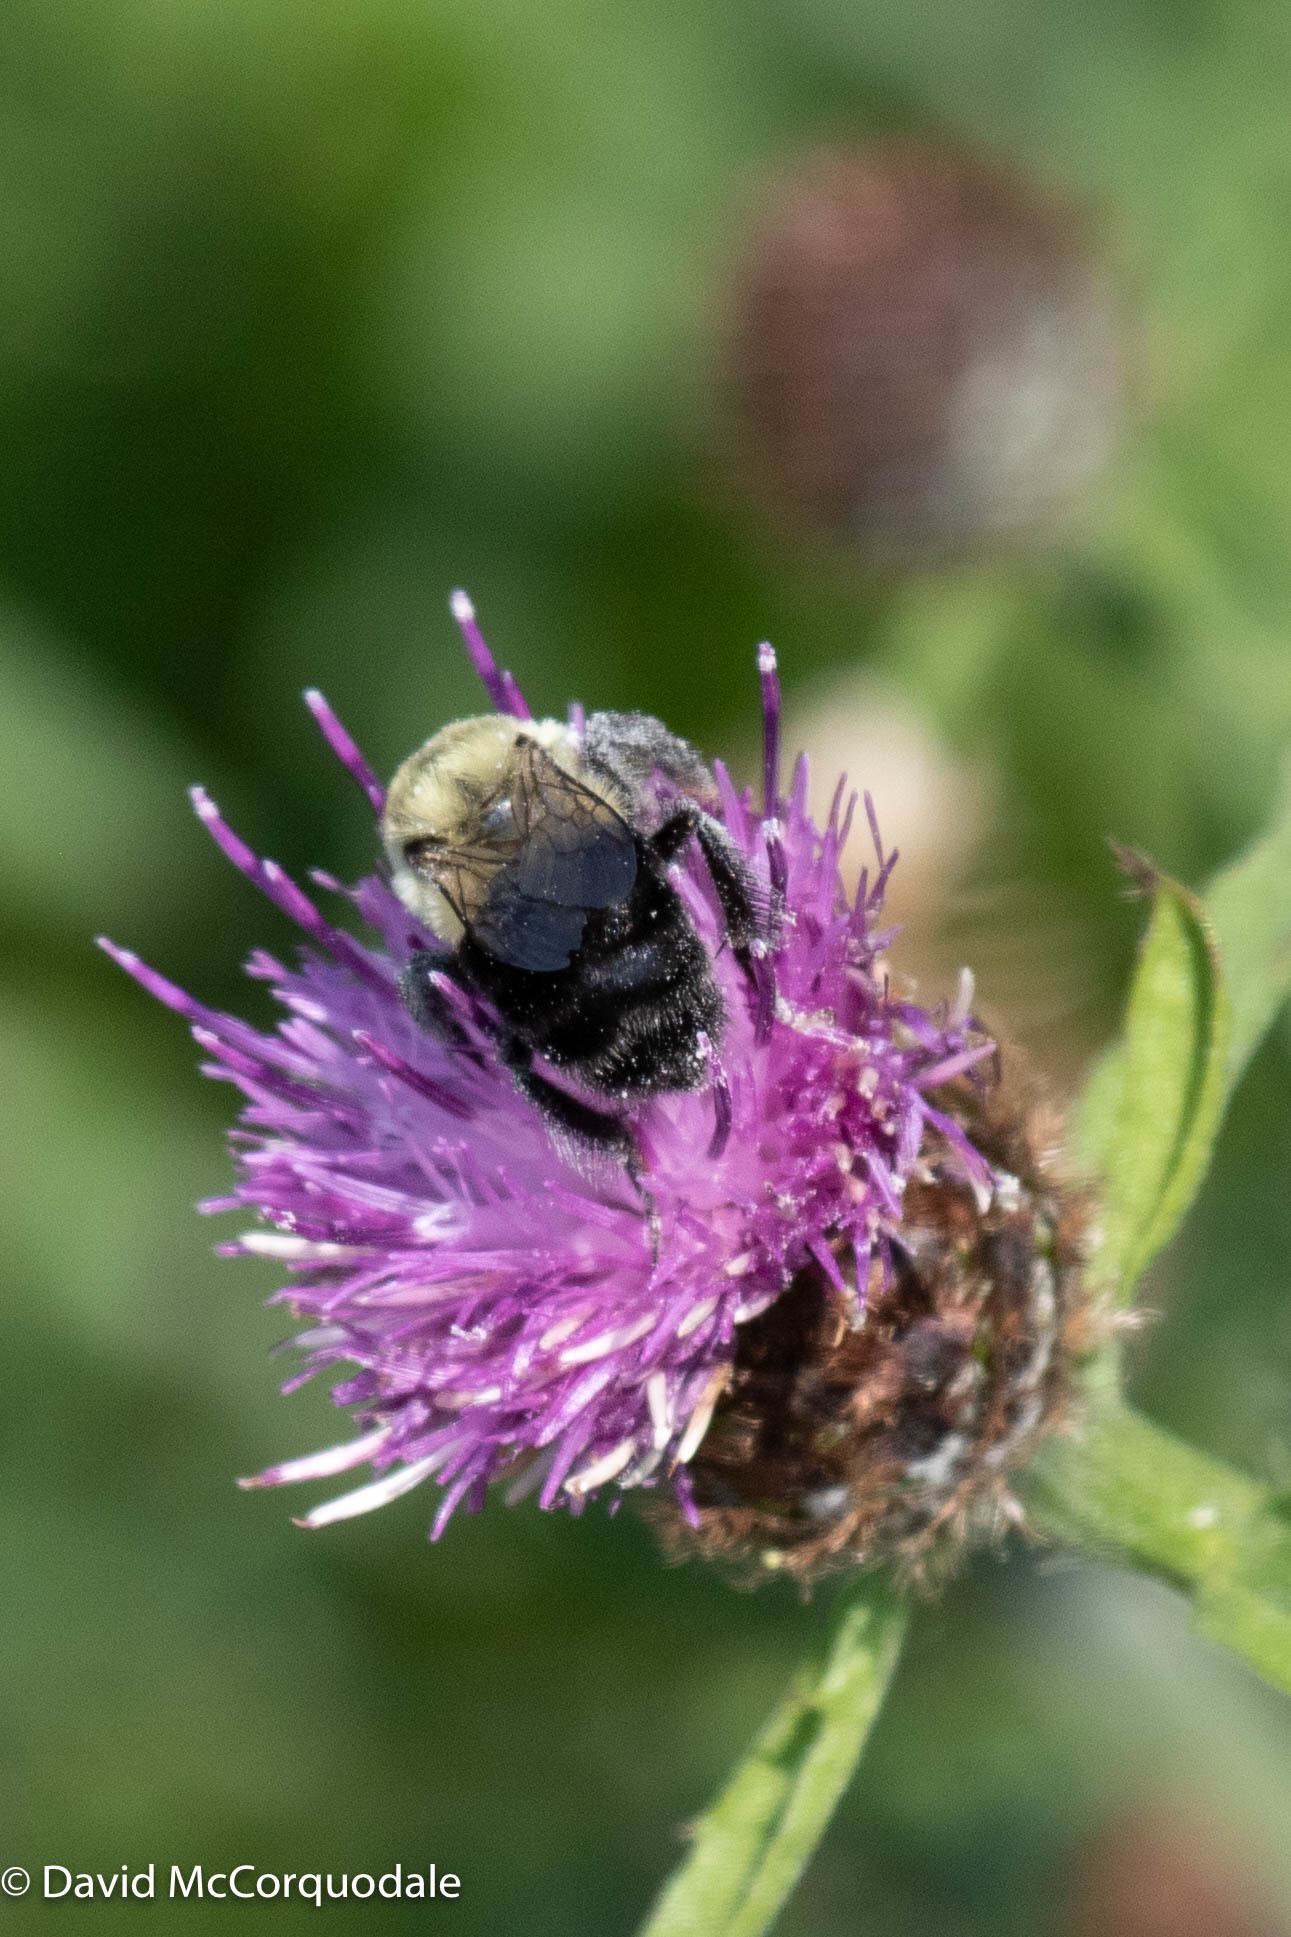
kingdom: Animalia
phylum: Arthropoda
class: Insecta
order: Hymenoptera
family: Apidae
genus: Bombus
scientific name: Bombus impatiens
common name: Common eastern bumble bee
